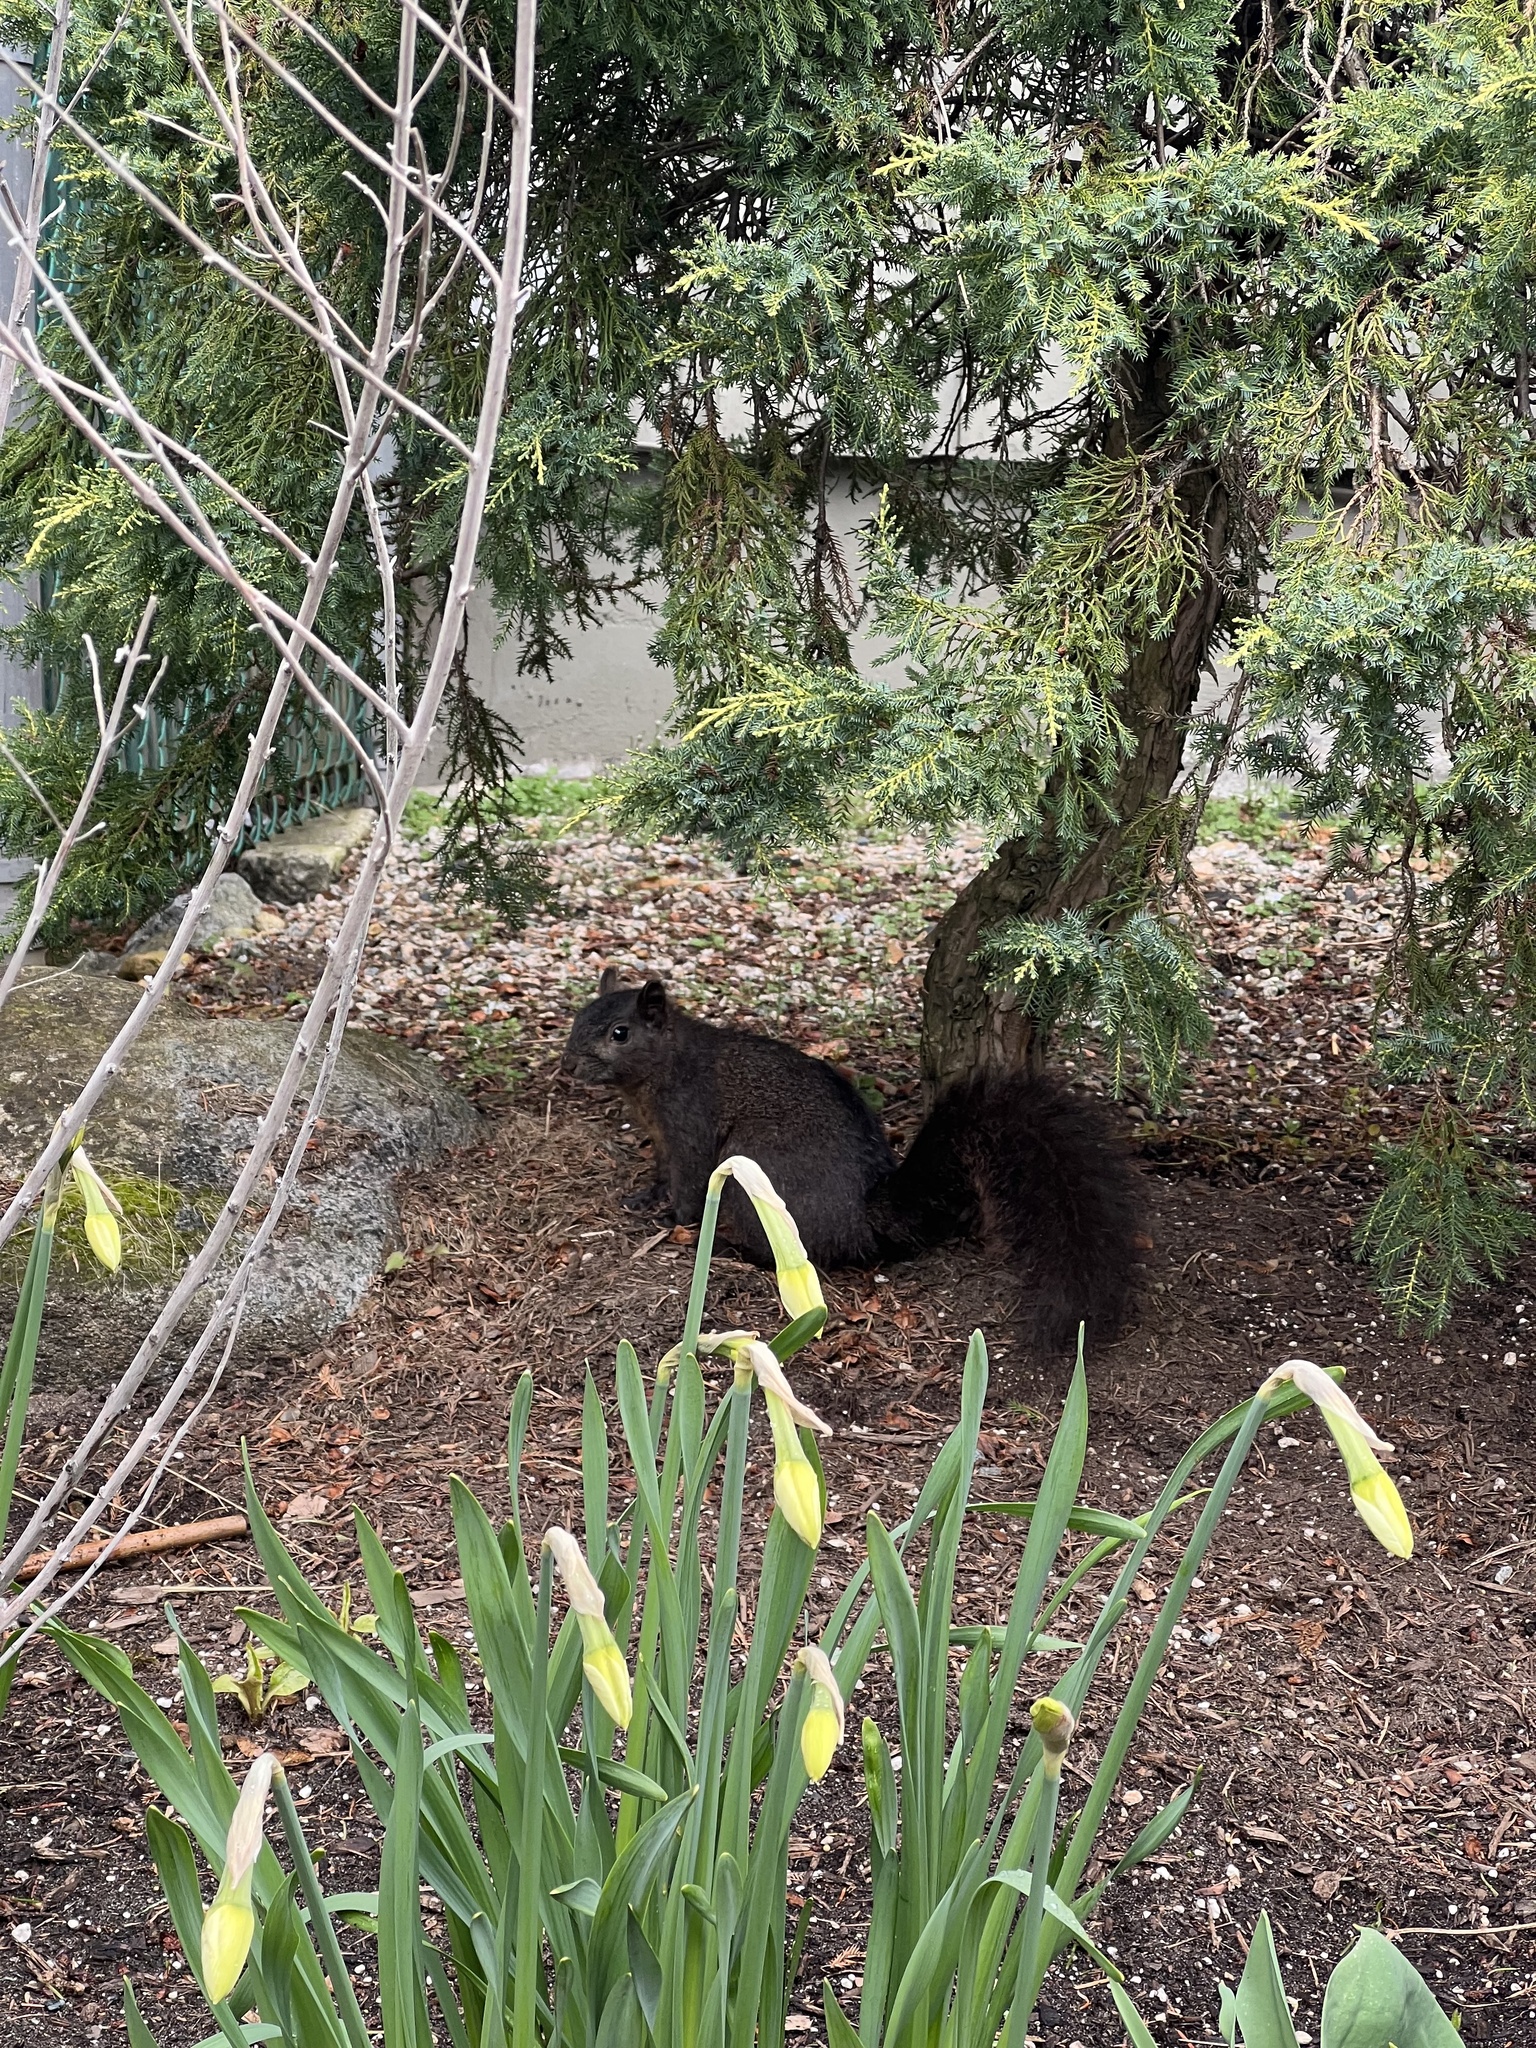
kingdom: Animalia
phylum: Chordata
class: Mammalia
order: Rodentia
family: Sciuridae
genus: Sciurus
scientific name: Sciurus carolinensis
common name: Eastern gray squirrel
